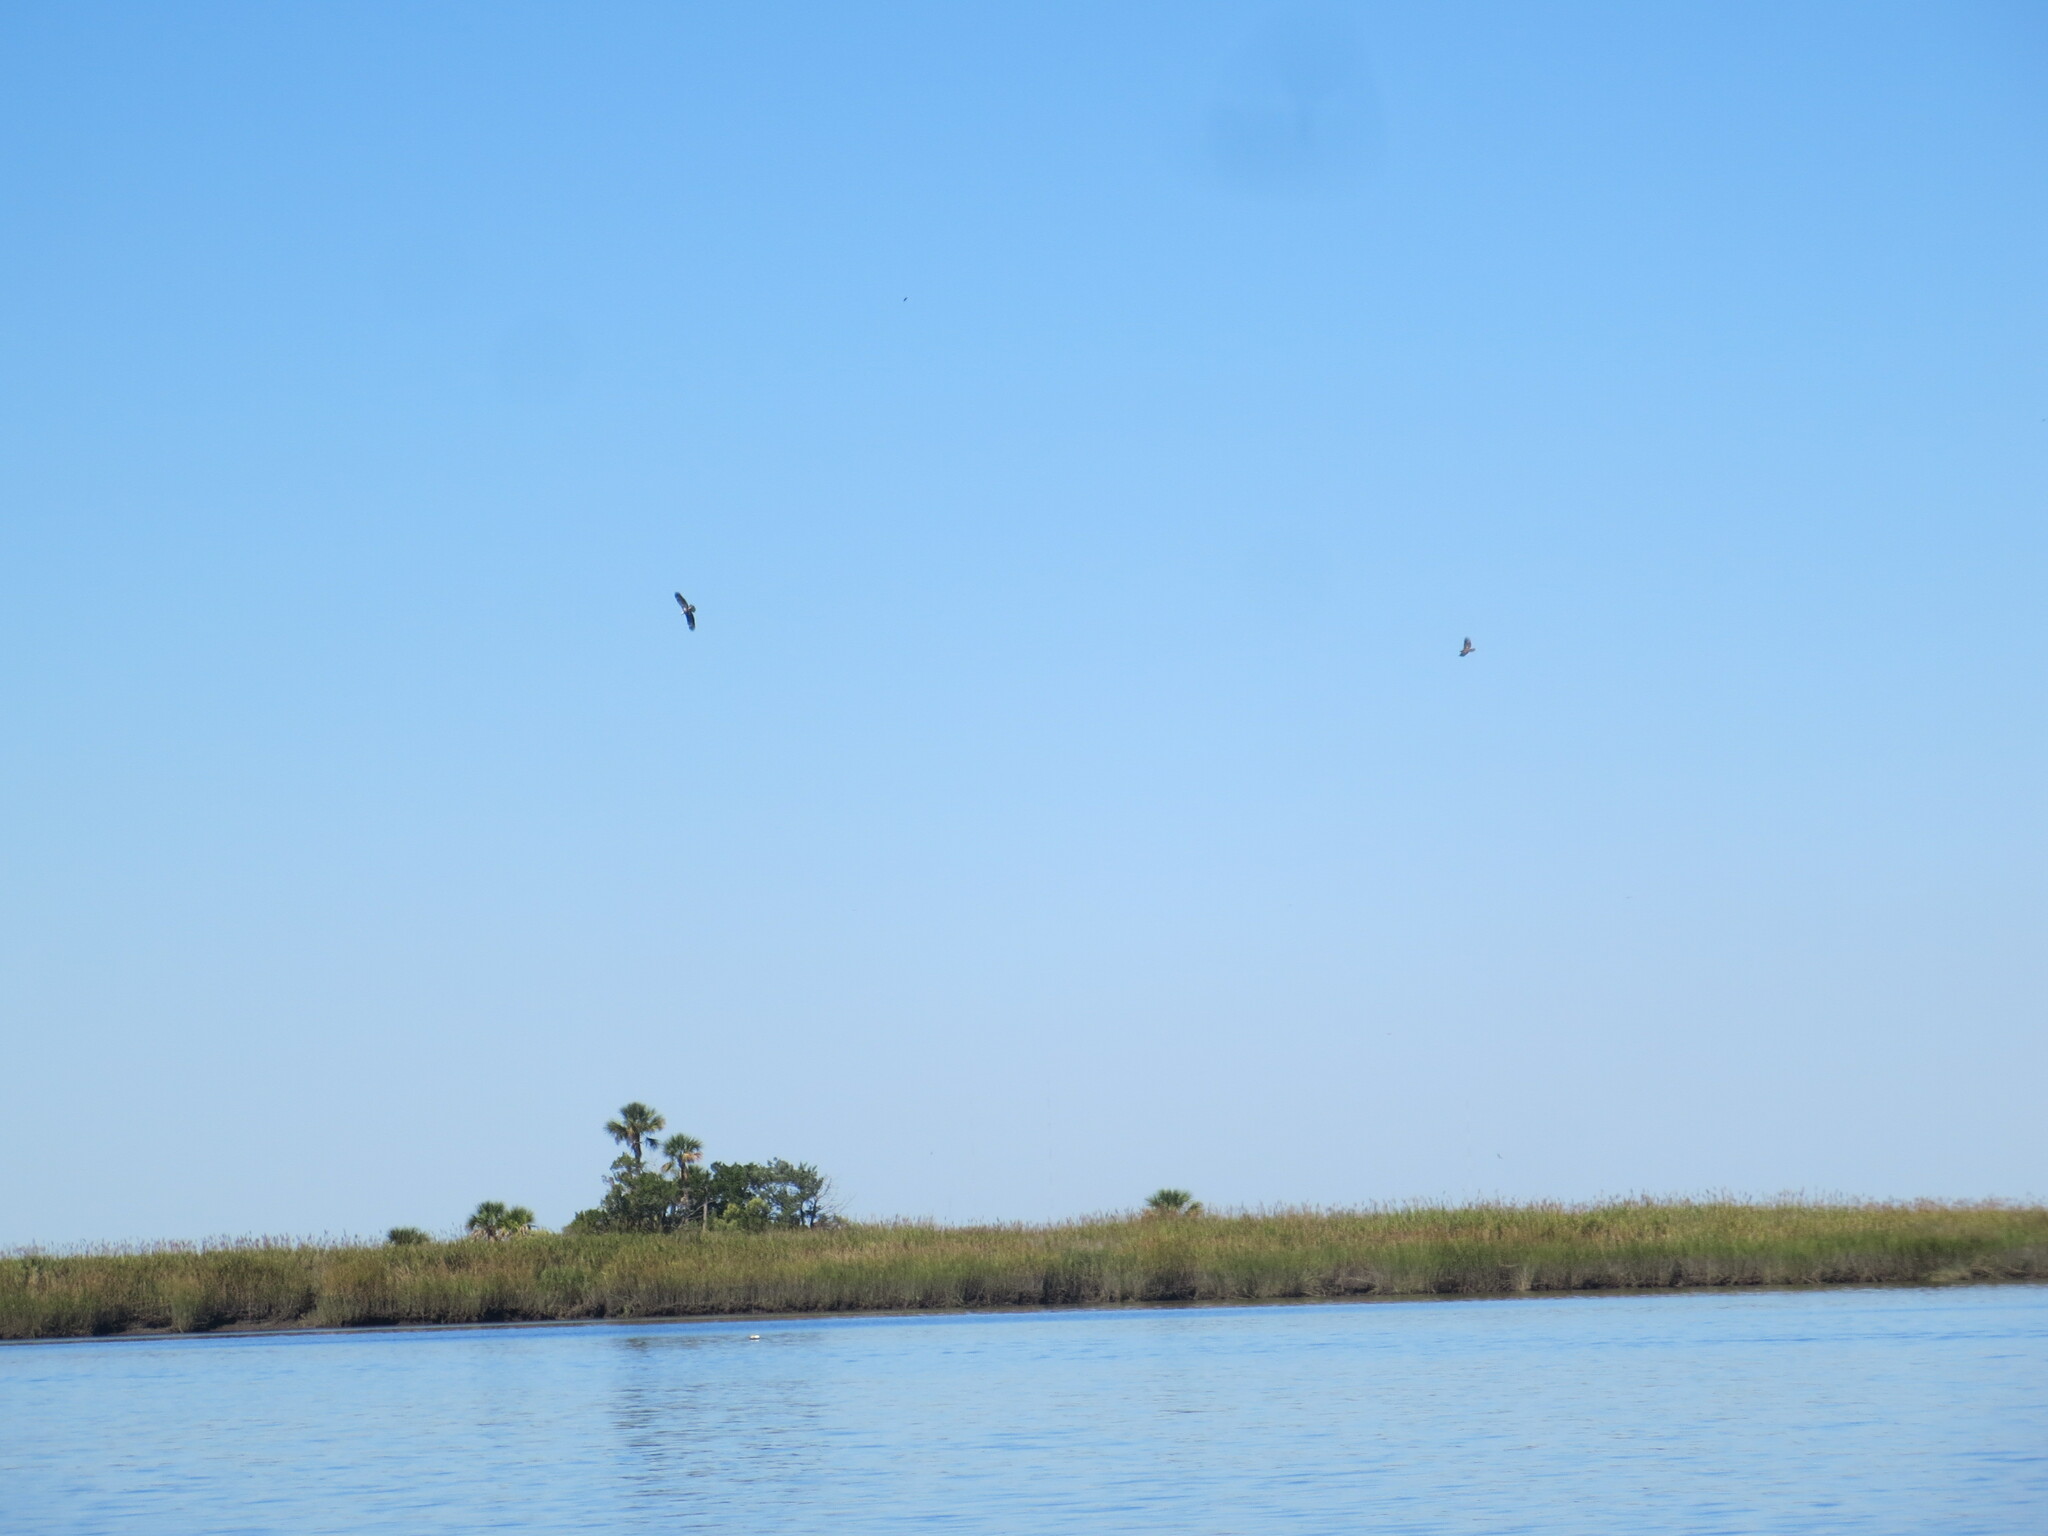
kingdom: Animalia
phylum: Chordata
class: Aves
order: Accipitriformes
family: Accipitridae
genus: Haliaeetus
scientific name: Haliaeetus leucocephalus
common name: Bald eagle
